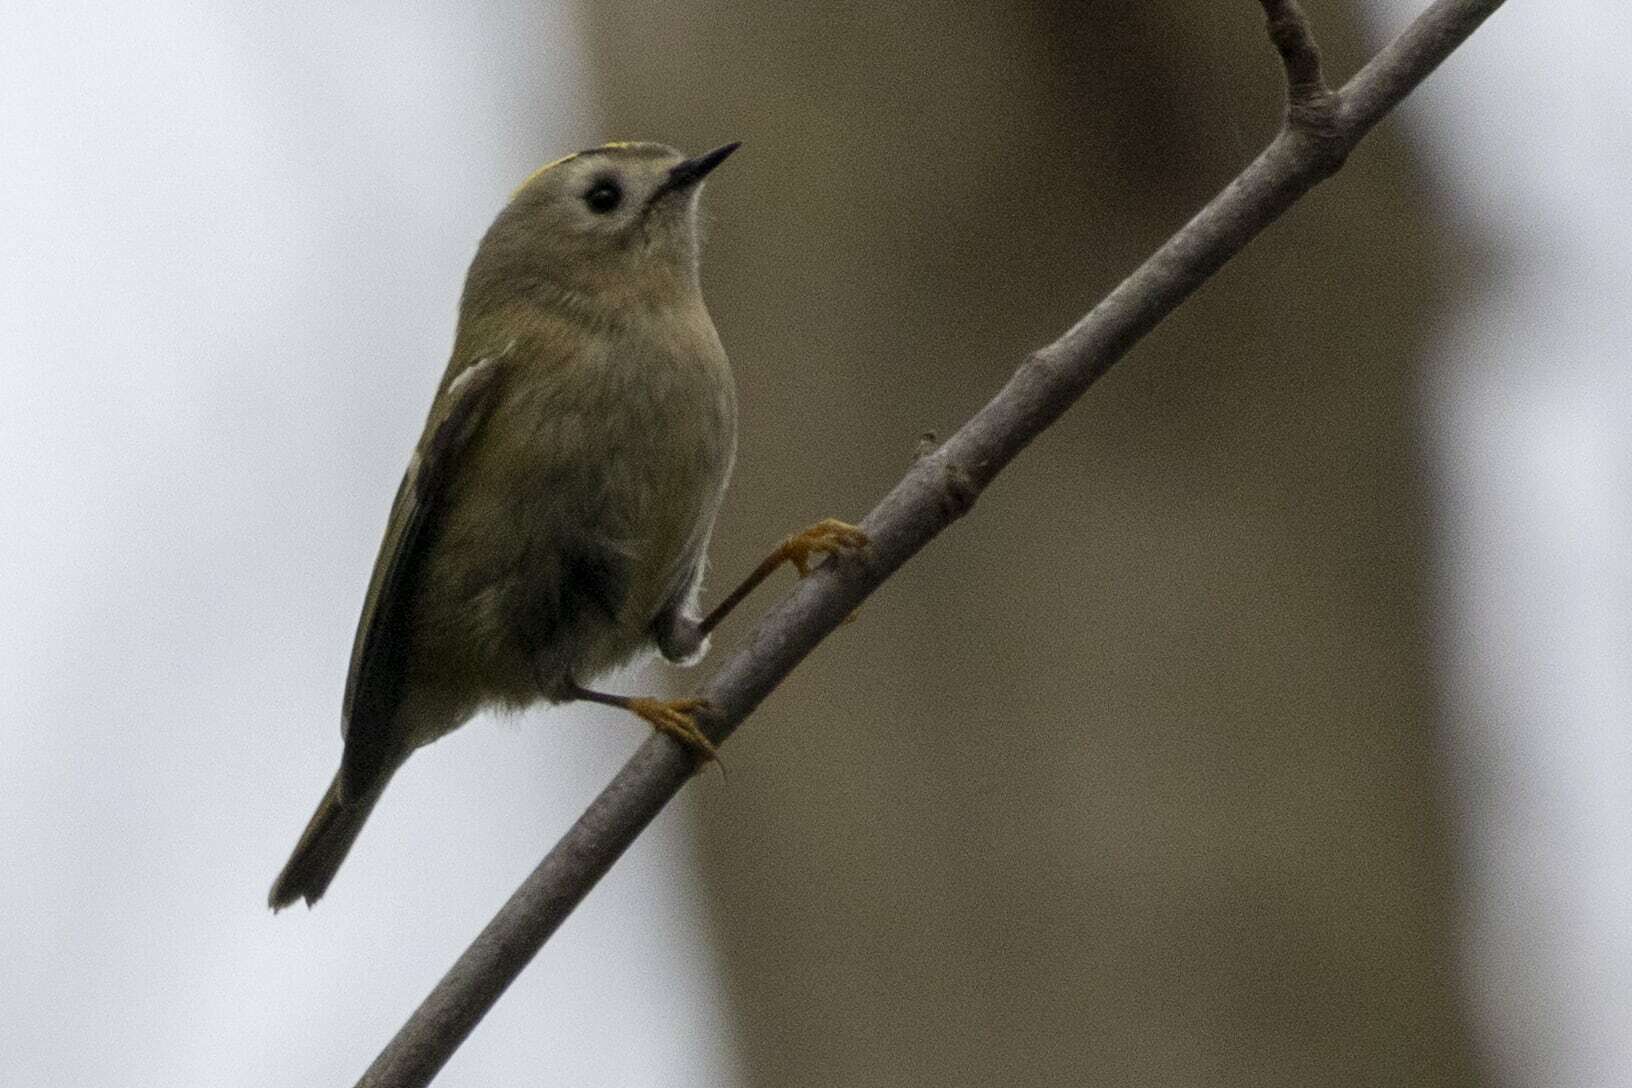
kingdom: Animalia
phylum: Chordata
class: Aves
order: Passeriformes
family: Regulidae
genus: Regulus
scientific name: Regulus regulus
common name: Goldcrest
